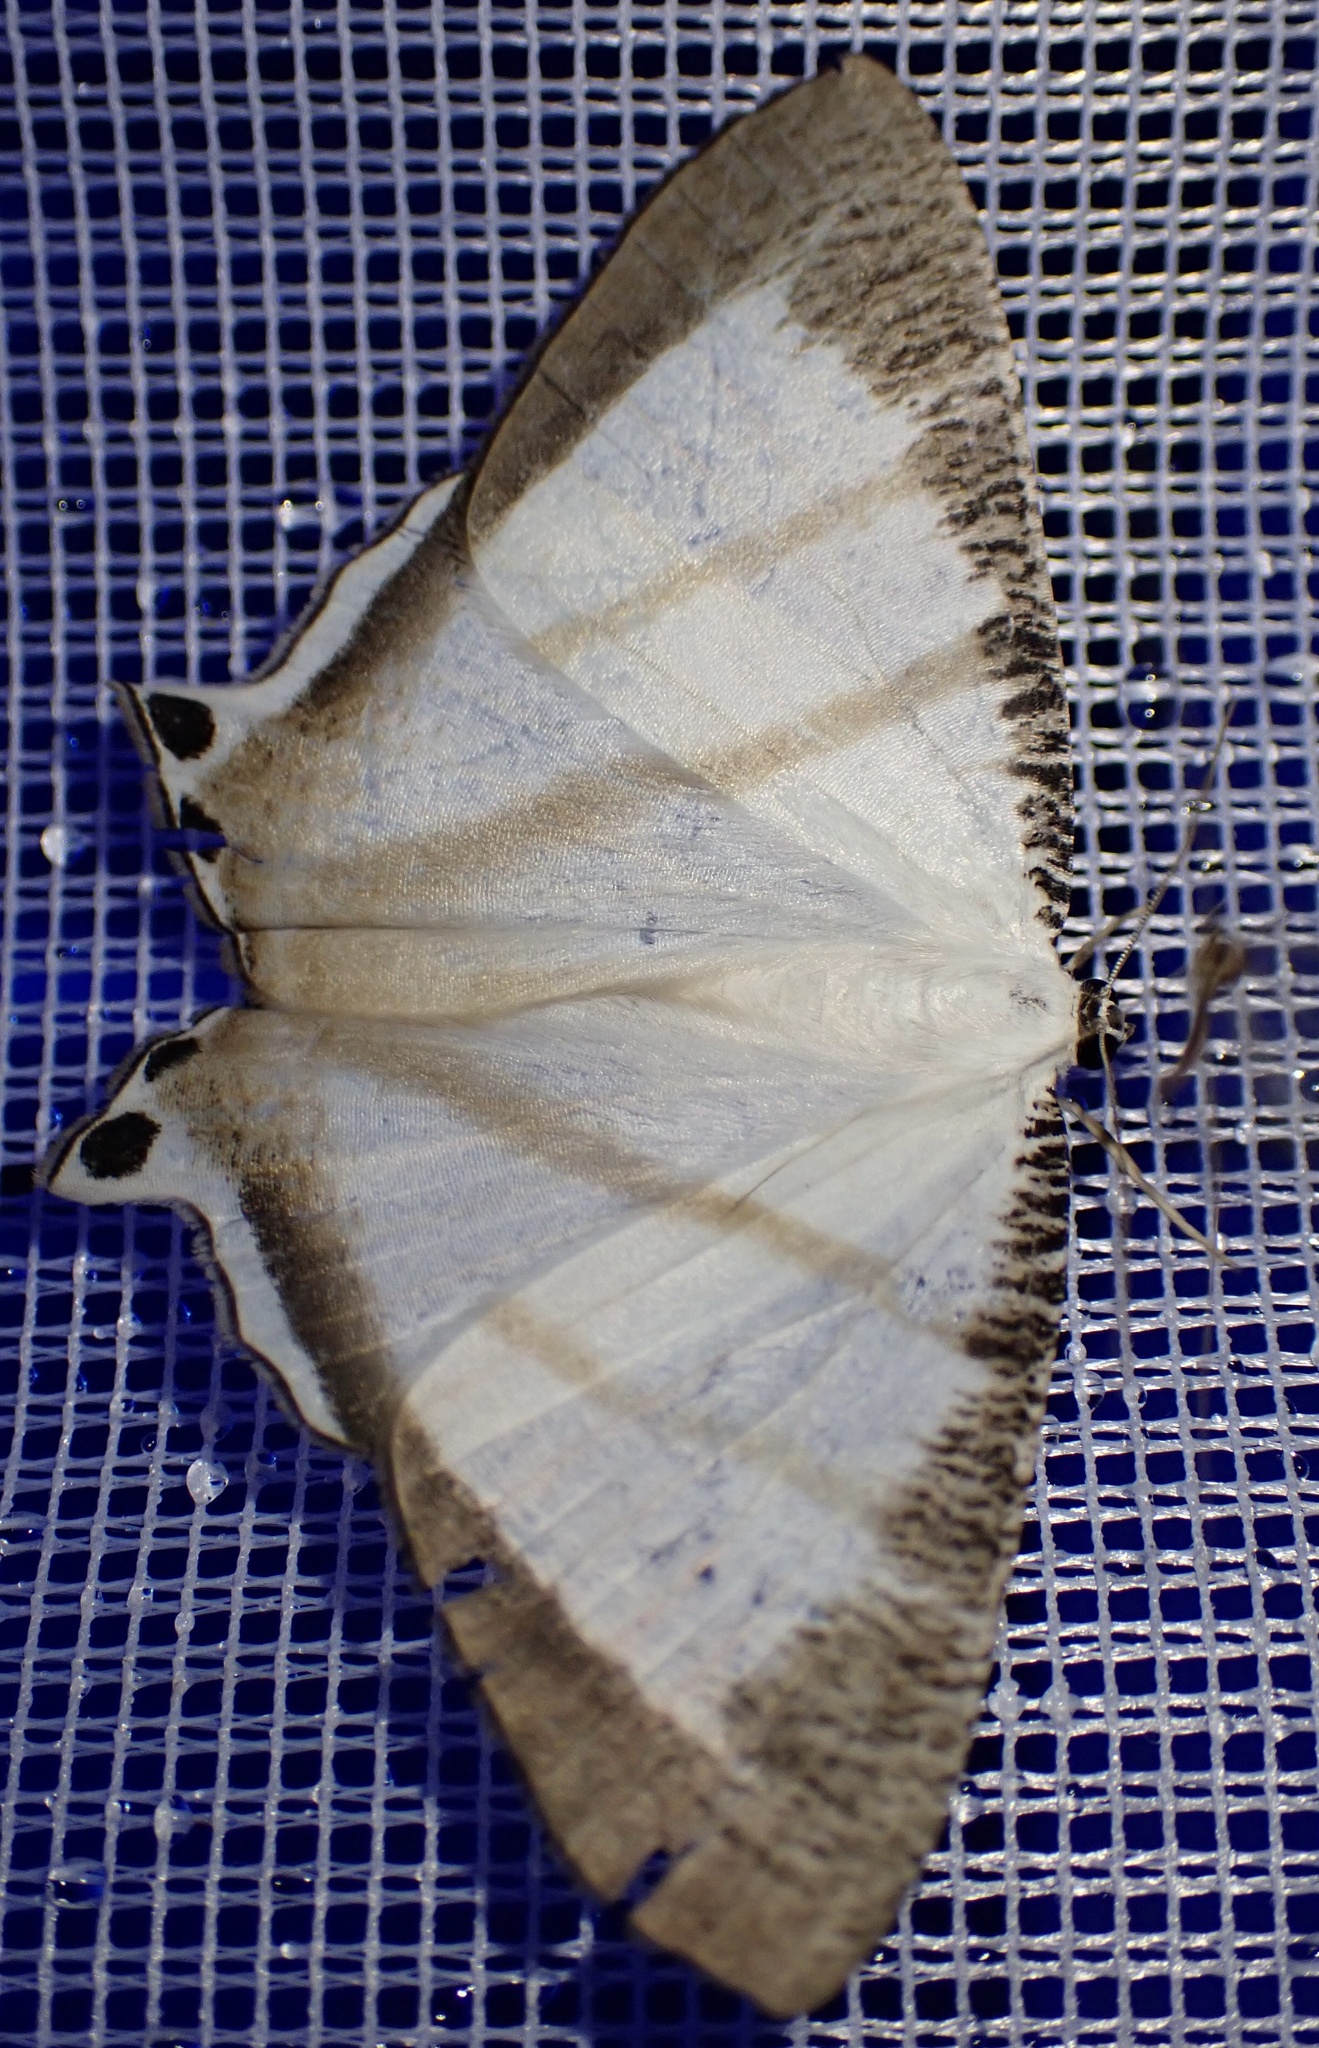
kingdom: Animalia
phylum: Arthropoda
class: Insecta
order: Lepidoptera
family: Uraniidae
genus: Cyphura
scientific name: Cyphura marcoi
